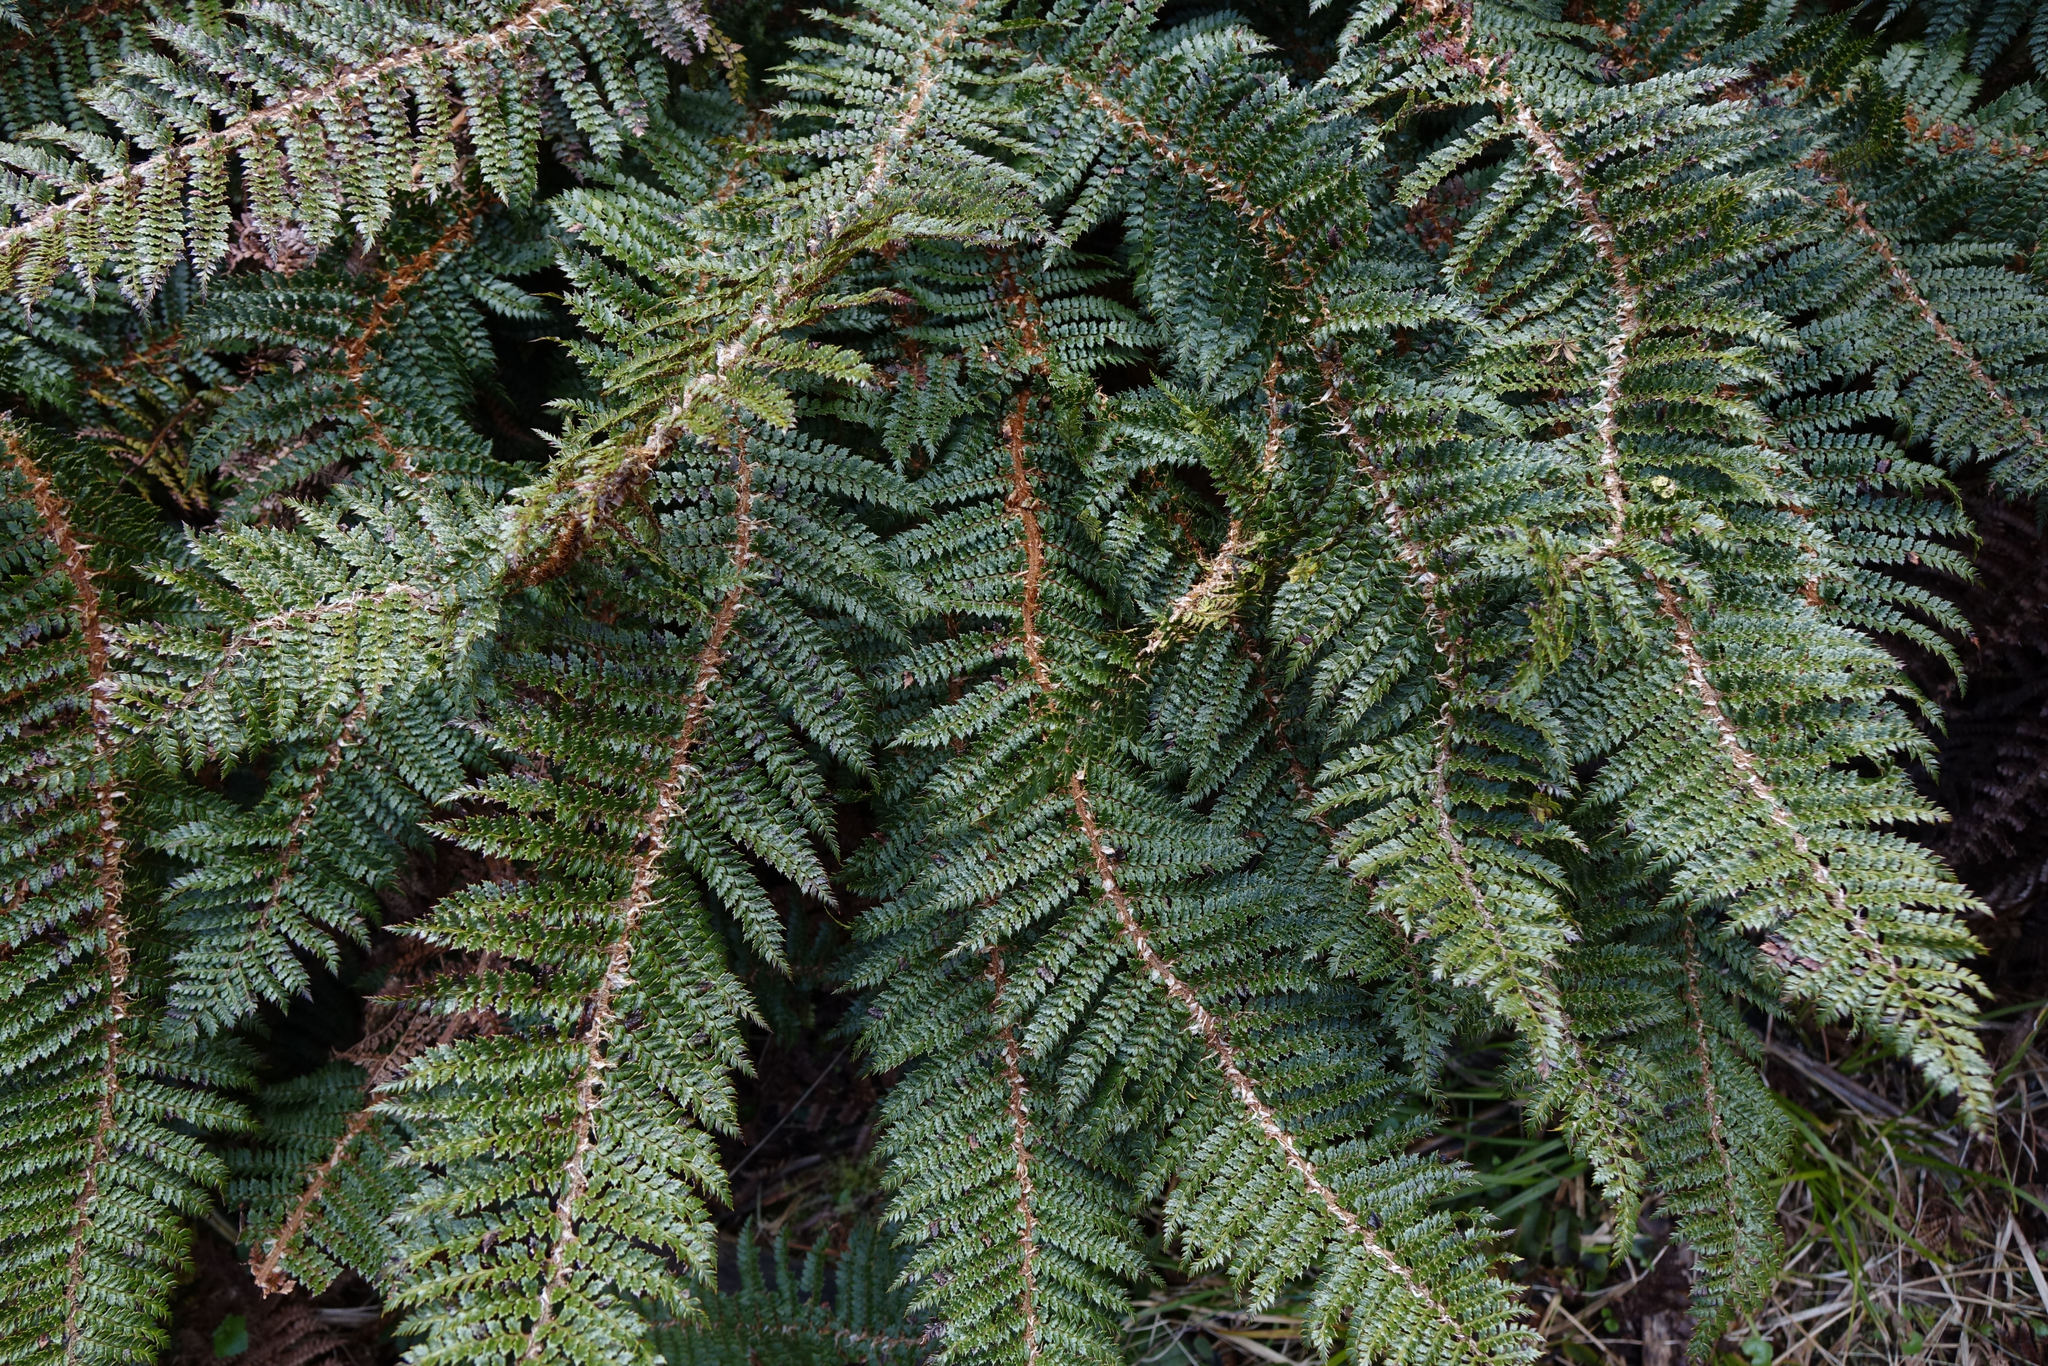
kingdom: Plantae
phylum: Tracheophyta
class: Polypodiopsida
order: Polypodiales
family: Dryopteridaceae
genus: Polystichum
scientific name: Polystichum vestitum
